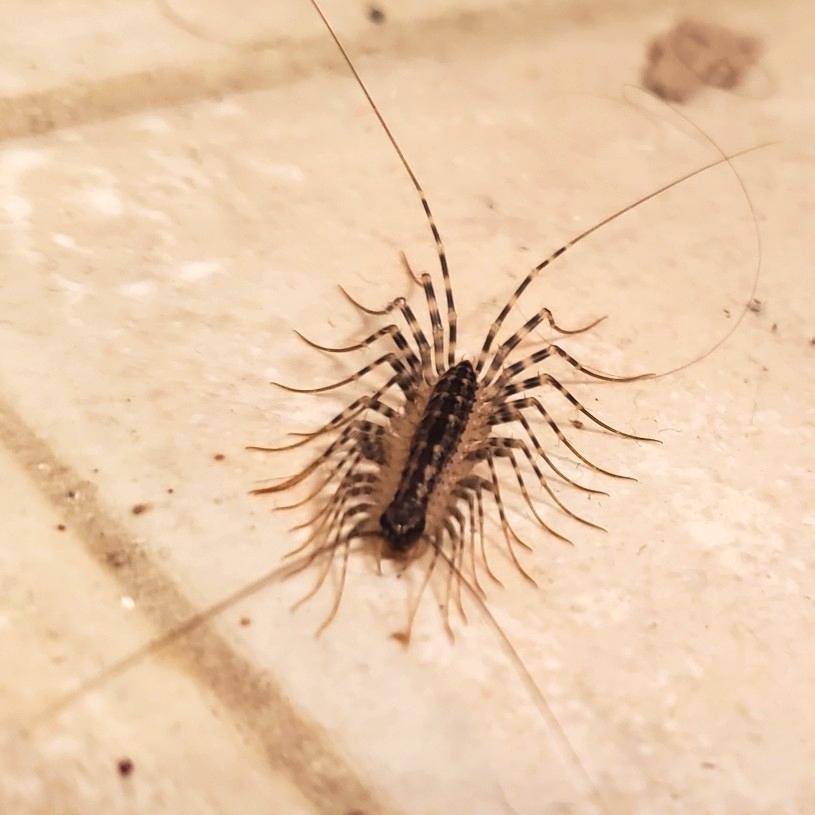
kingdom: Animalia
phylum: Arthropoda
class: Chilopoda
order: Scutigeromorpha
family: Scutigeridae
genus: Thereuonema
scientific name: Thereuonema tuberculata
